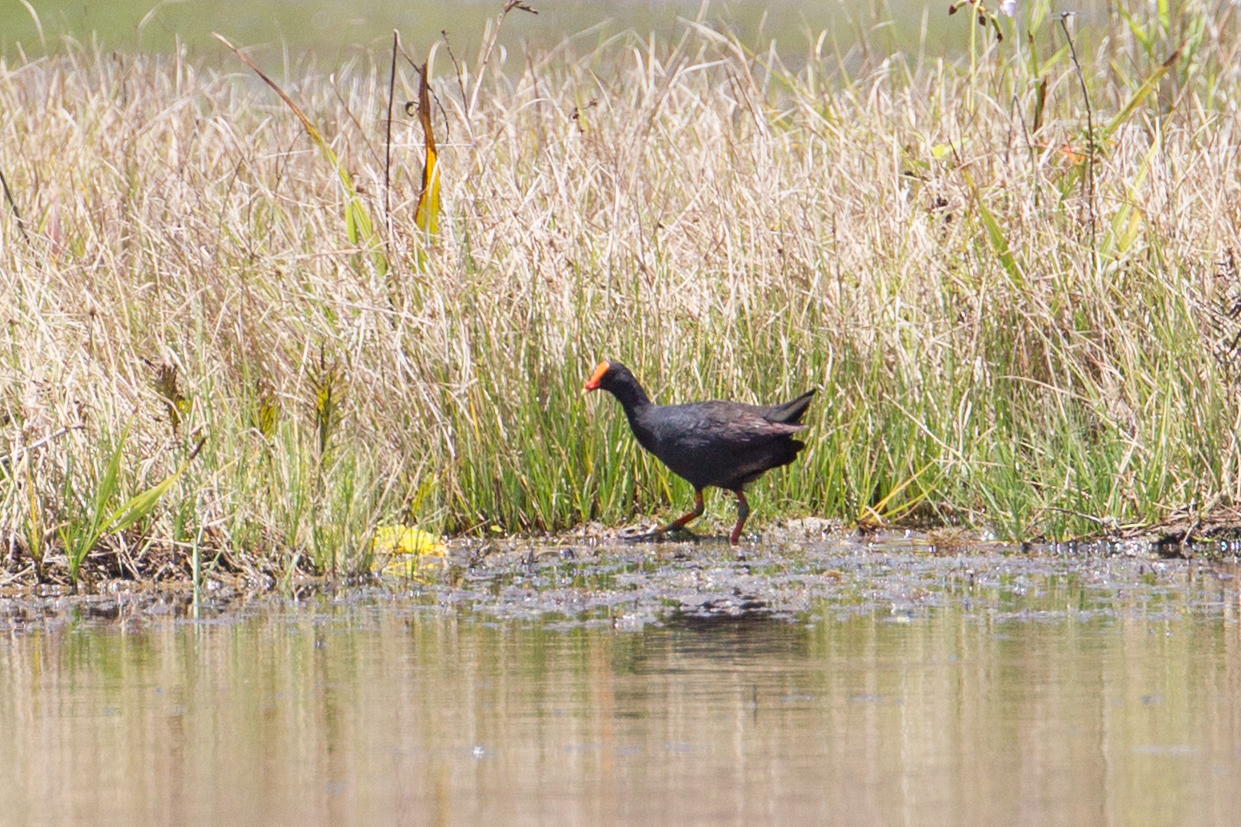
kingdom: Animalia
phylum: Chordata
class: Aves
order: Gruiformes
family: Rallidae
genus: Gallinula
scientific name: Gallinula tenebrosa
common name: Dusky moorhen
